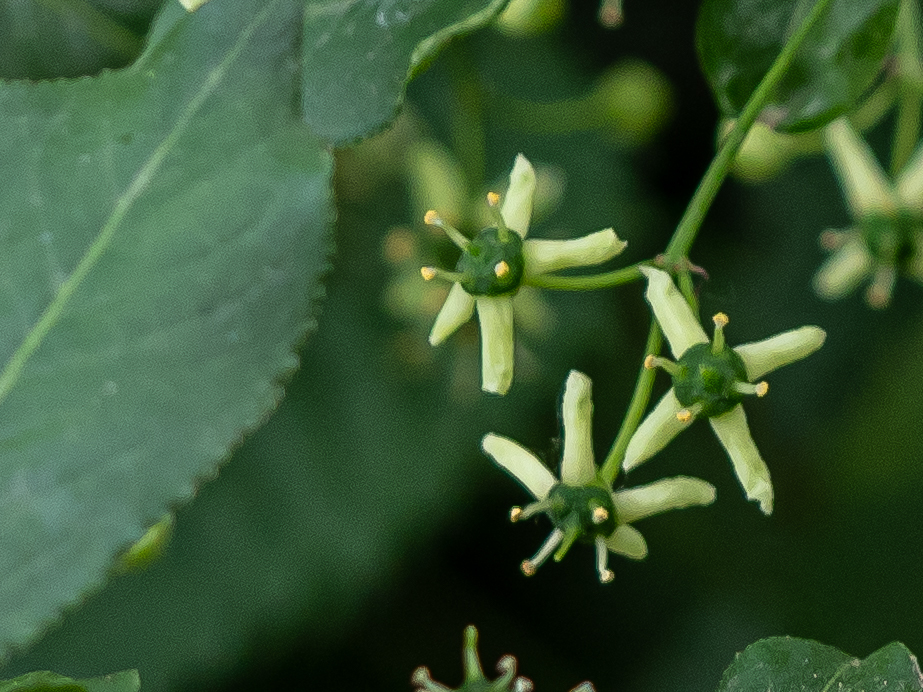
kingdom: Plantae
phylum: Tracheophyta
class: Magnoliopsida
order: Celastrales
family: Celastraceae
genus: Euonymus
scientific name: Euonymus europaeus
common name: Spindle
